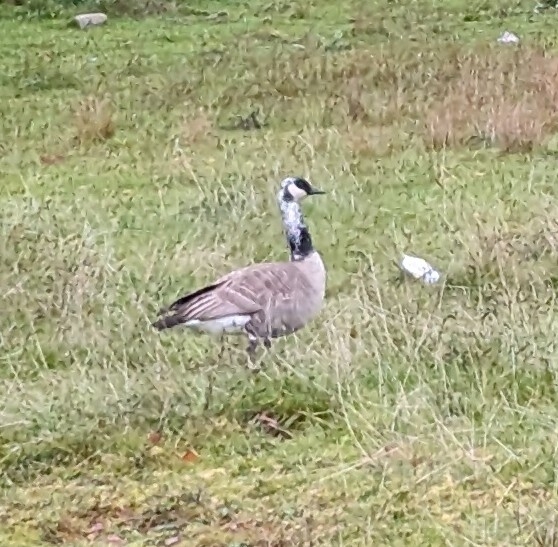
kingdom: Animalia
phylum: Chordata
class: Aves
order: Anseriformes
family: Anatidae
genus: Branta
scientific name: Branta canadensis
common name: Canada goose
